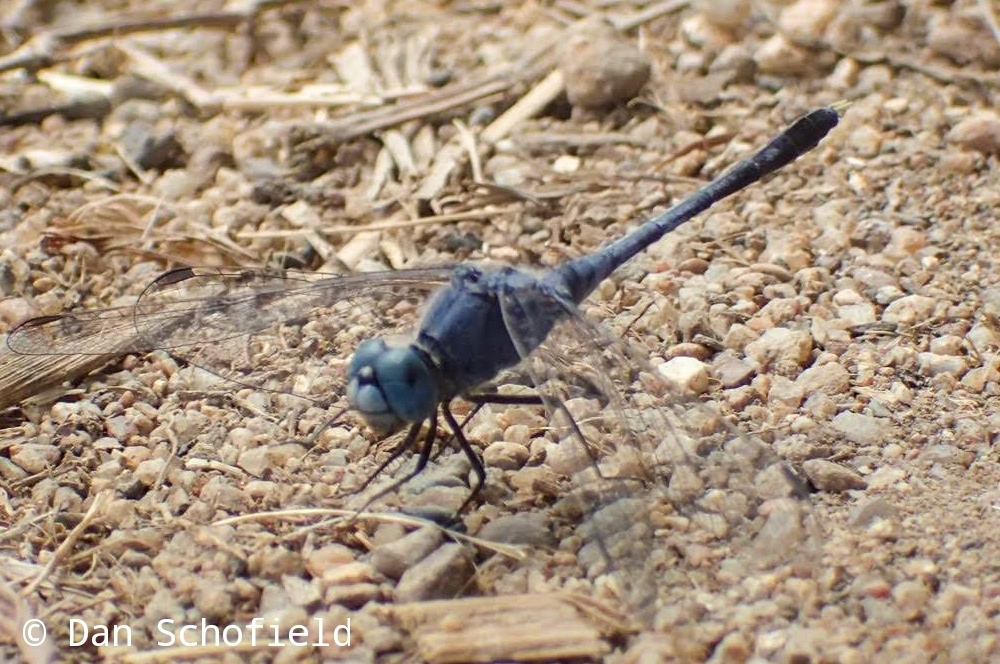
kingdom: Animalia
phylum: Arthropoda
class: Insecta
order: Odonata
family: Libellulidae
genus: Diplacodes
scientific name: Diplacodes trivialis
